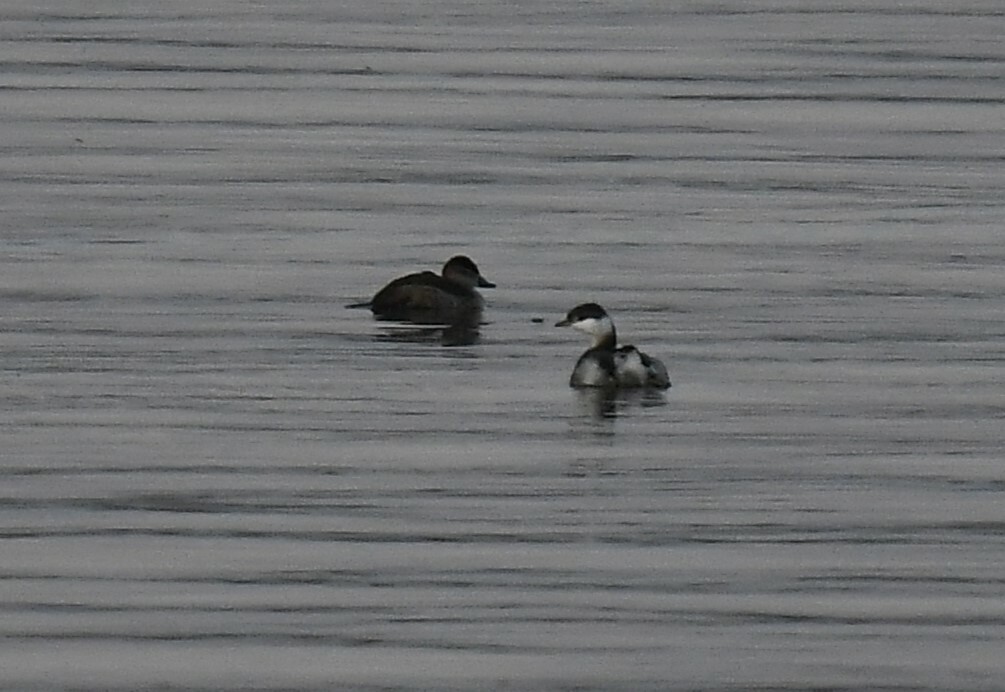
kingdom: Animalia
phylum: Chordata
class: Aves
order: Podicipediformes
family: Podicipedidae
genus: Podiceps
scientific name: Podiceps auritus
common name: Horned grebe
